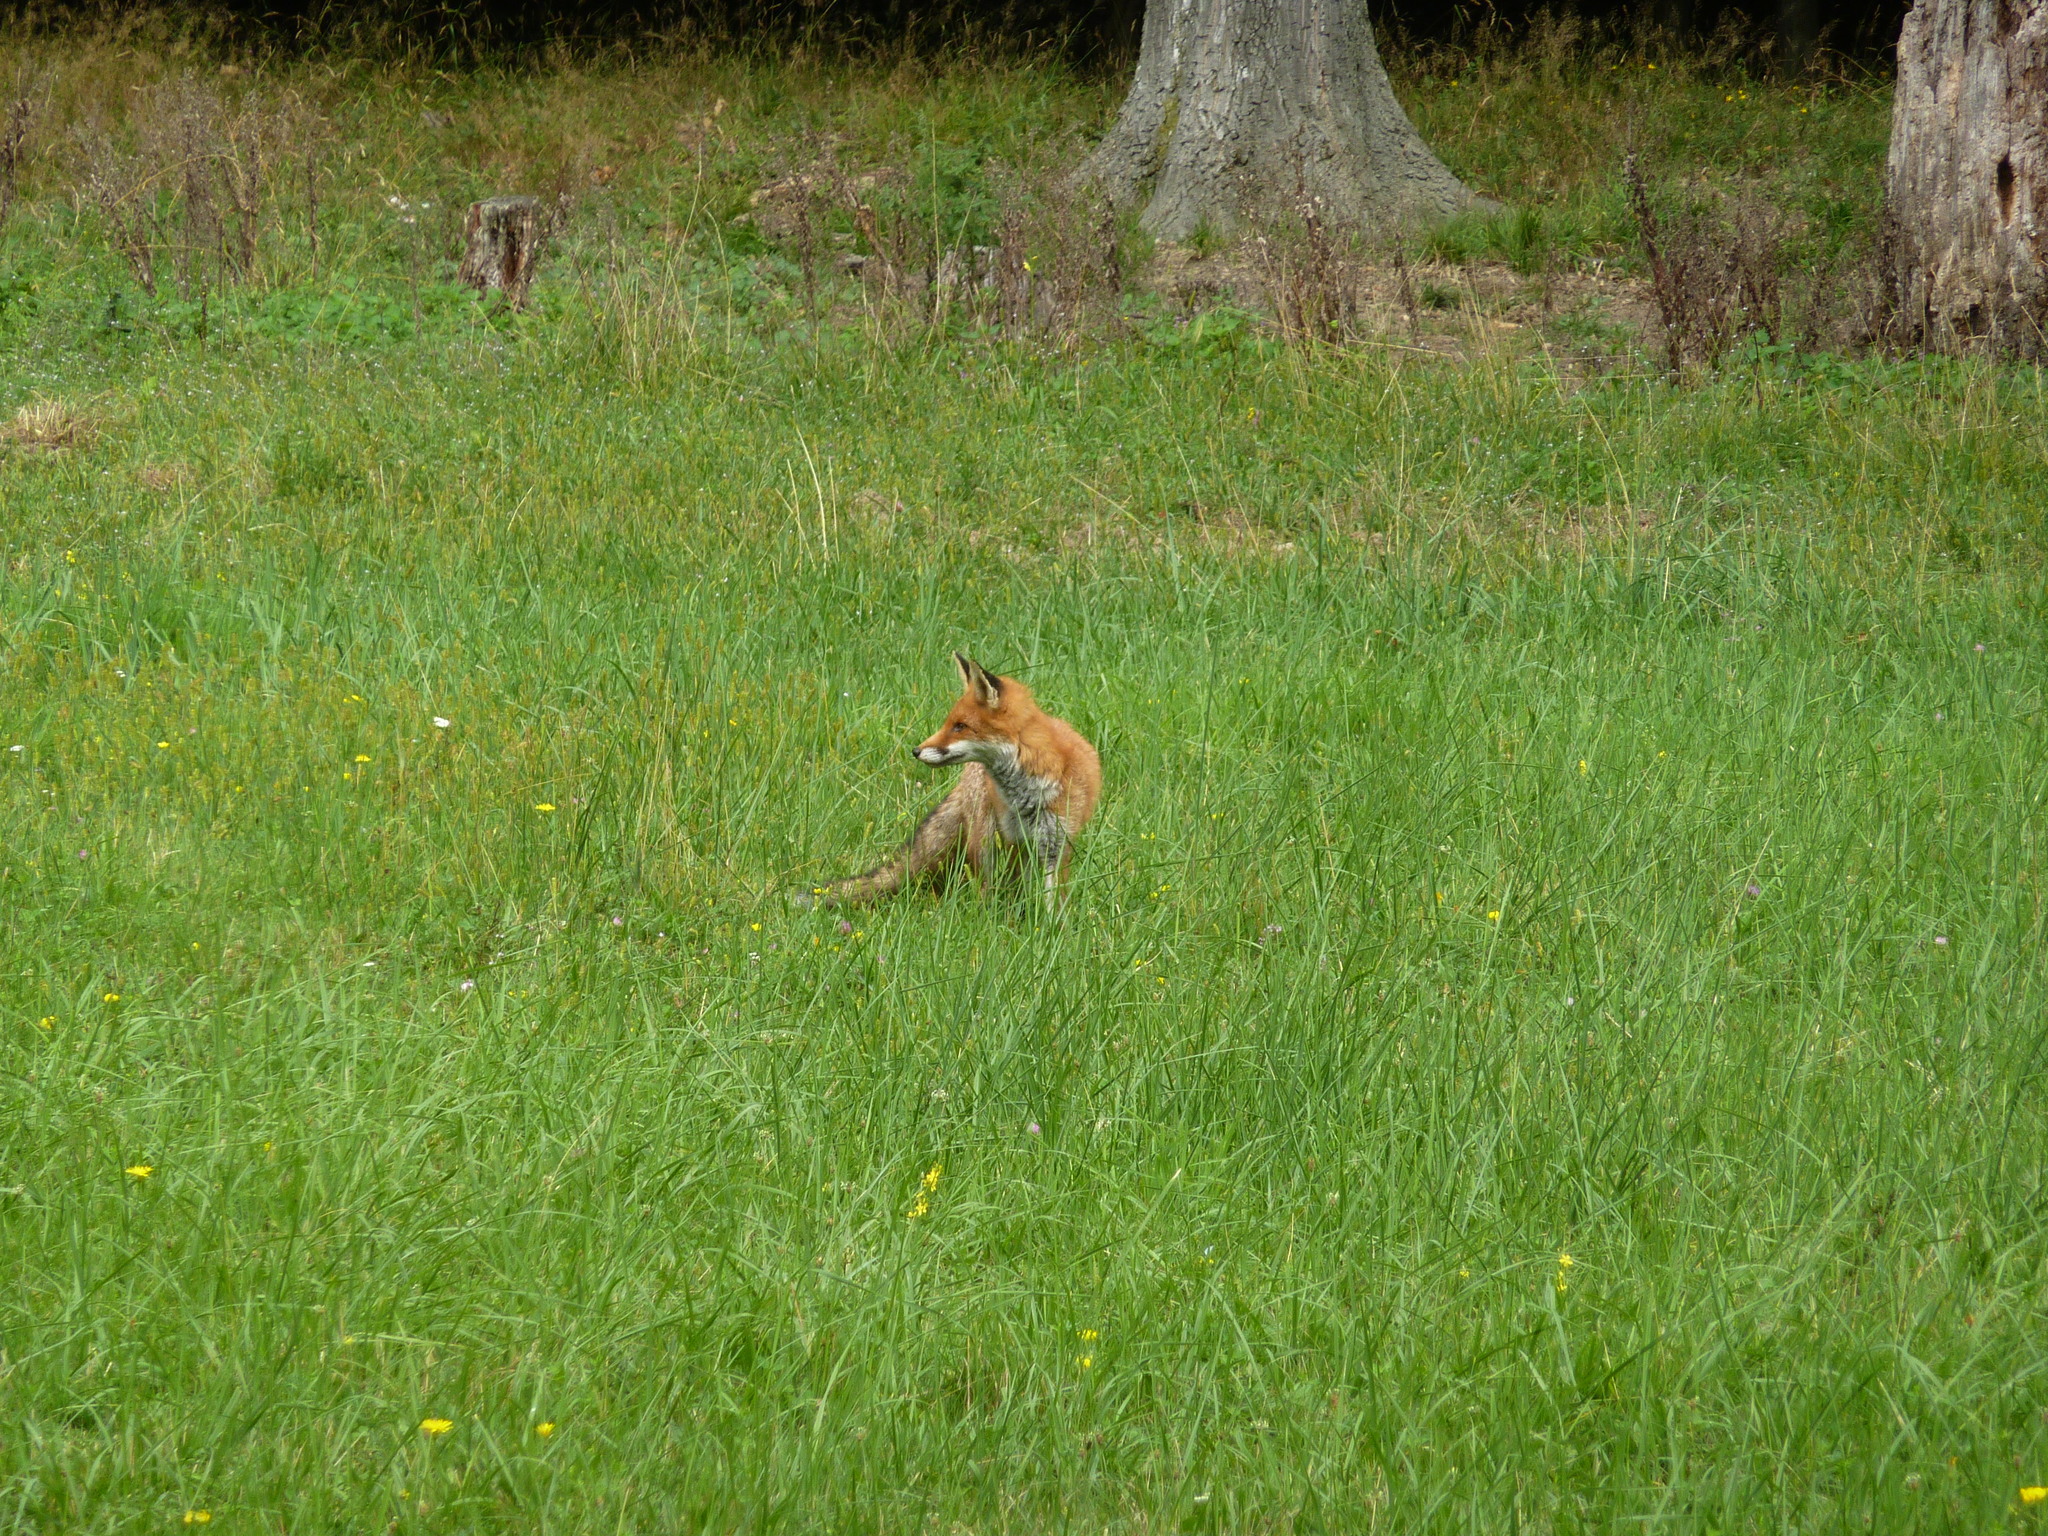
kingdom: Animalia
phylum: Chordata
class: Mammalia
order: Carnivora
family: Canidae
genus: Vulpes
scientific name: Vulpes vulpes
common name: Red fox
